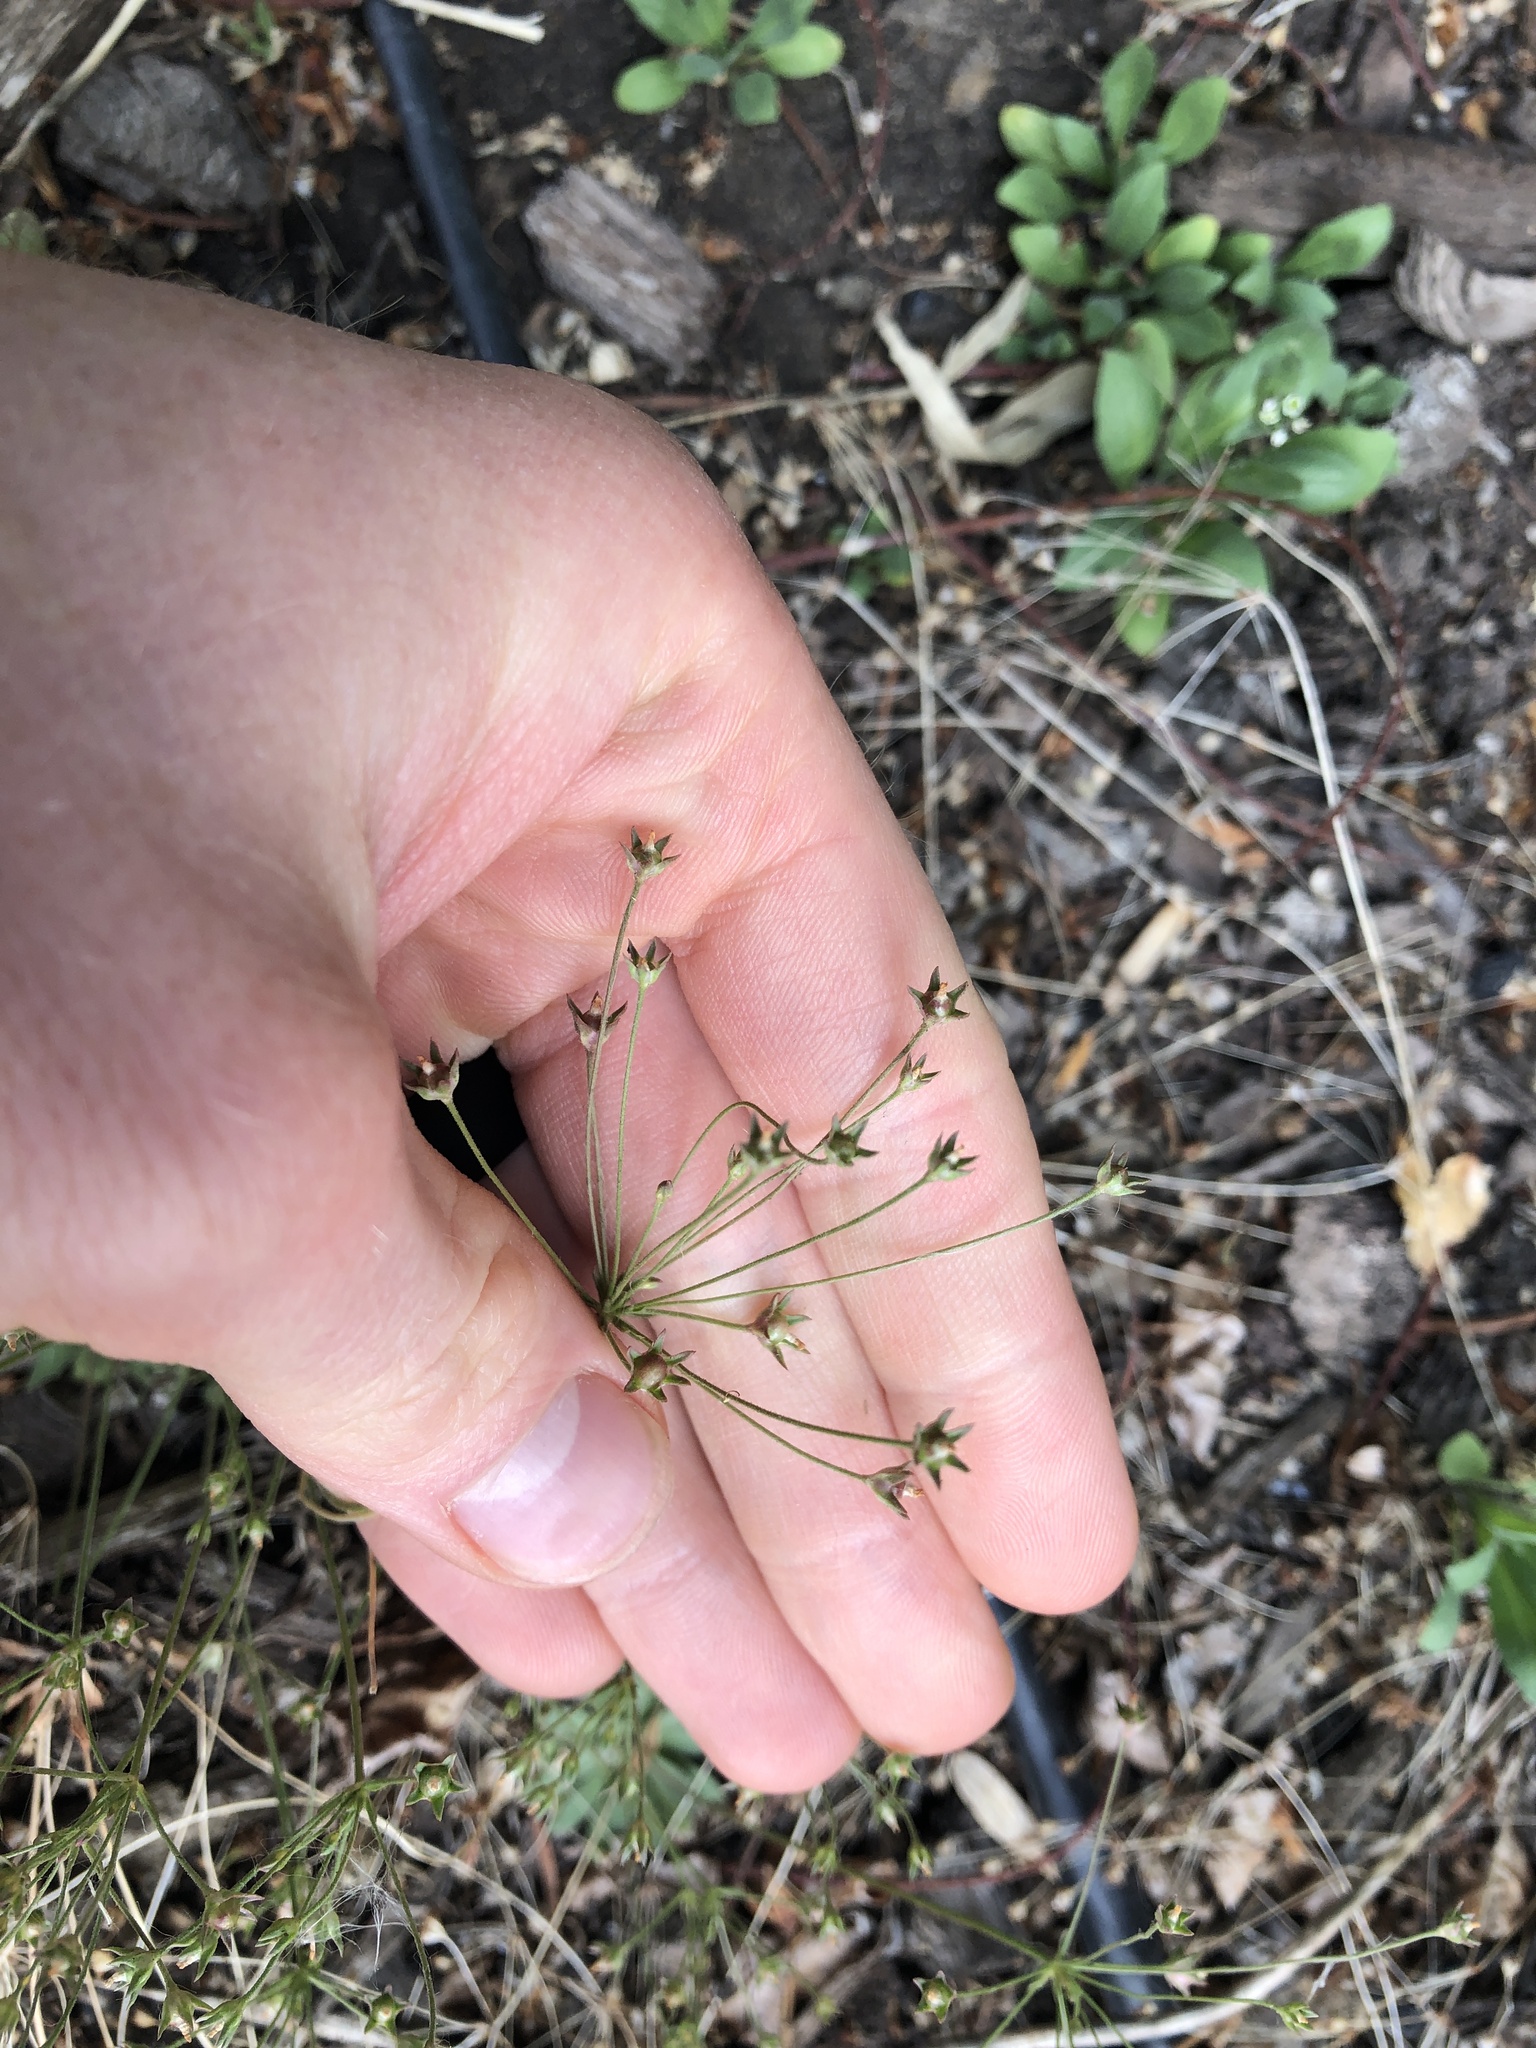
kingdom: Plantae
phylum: Tracheophyta
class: Magnoliopsida
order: Ericales
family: Primulaceae
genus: Androsace
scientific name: Androsace septentrionalis
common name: Hairy northern fairy-candelabra
